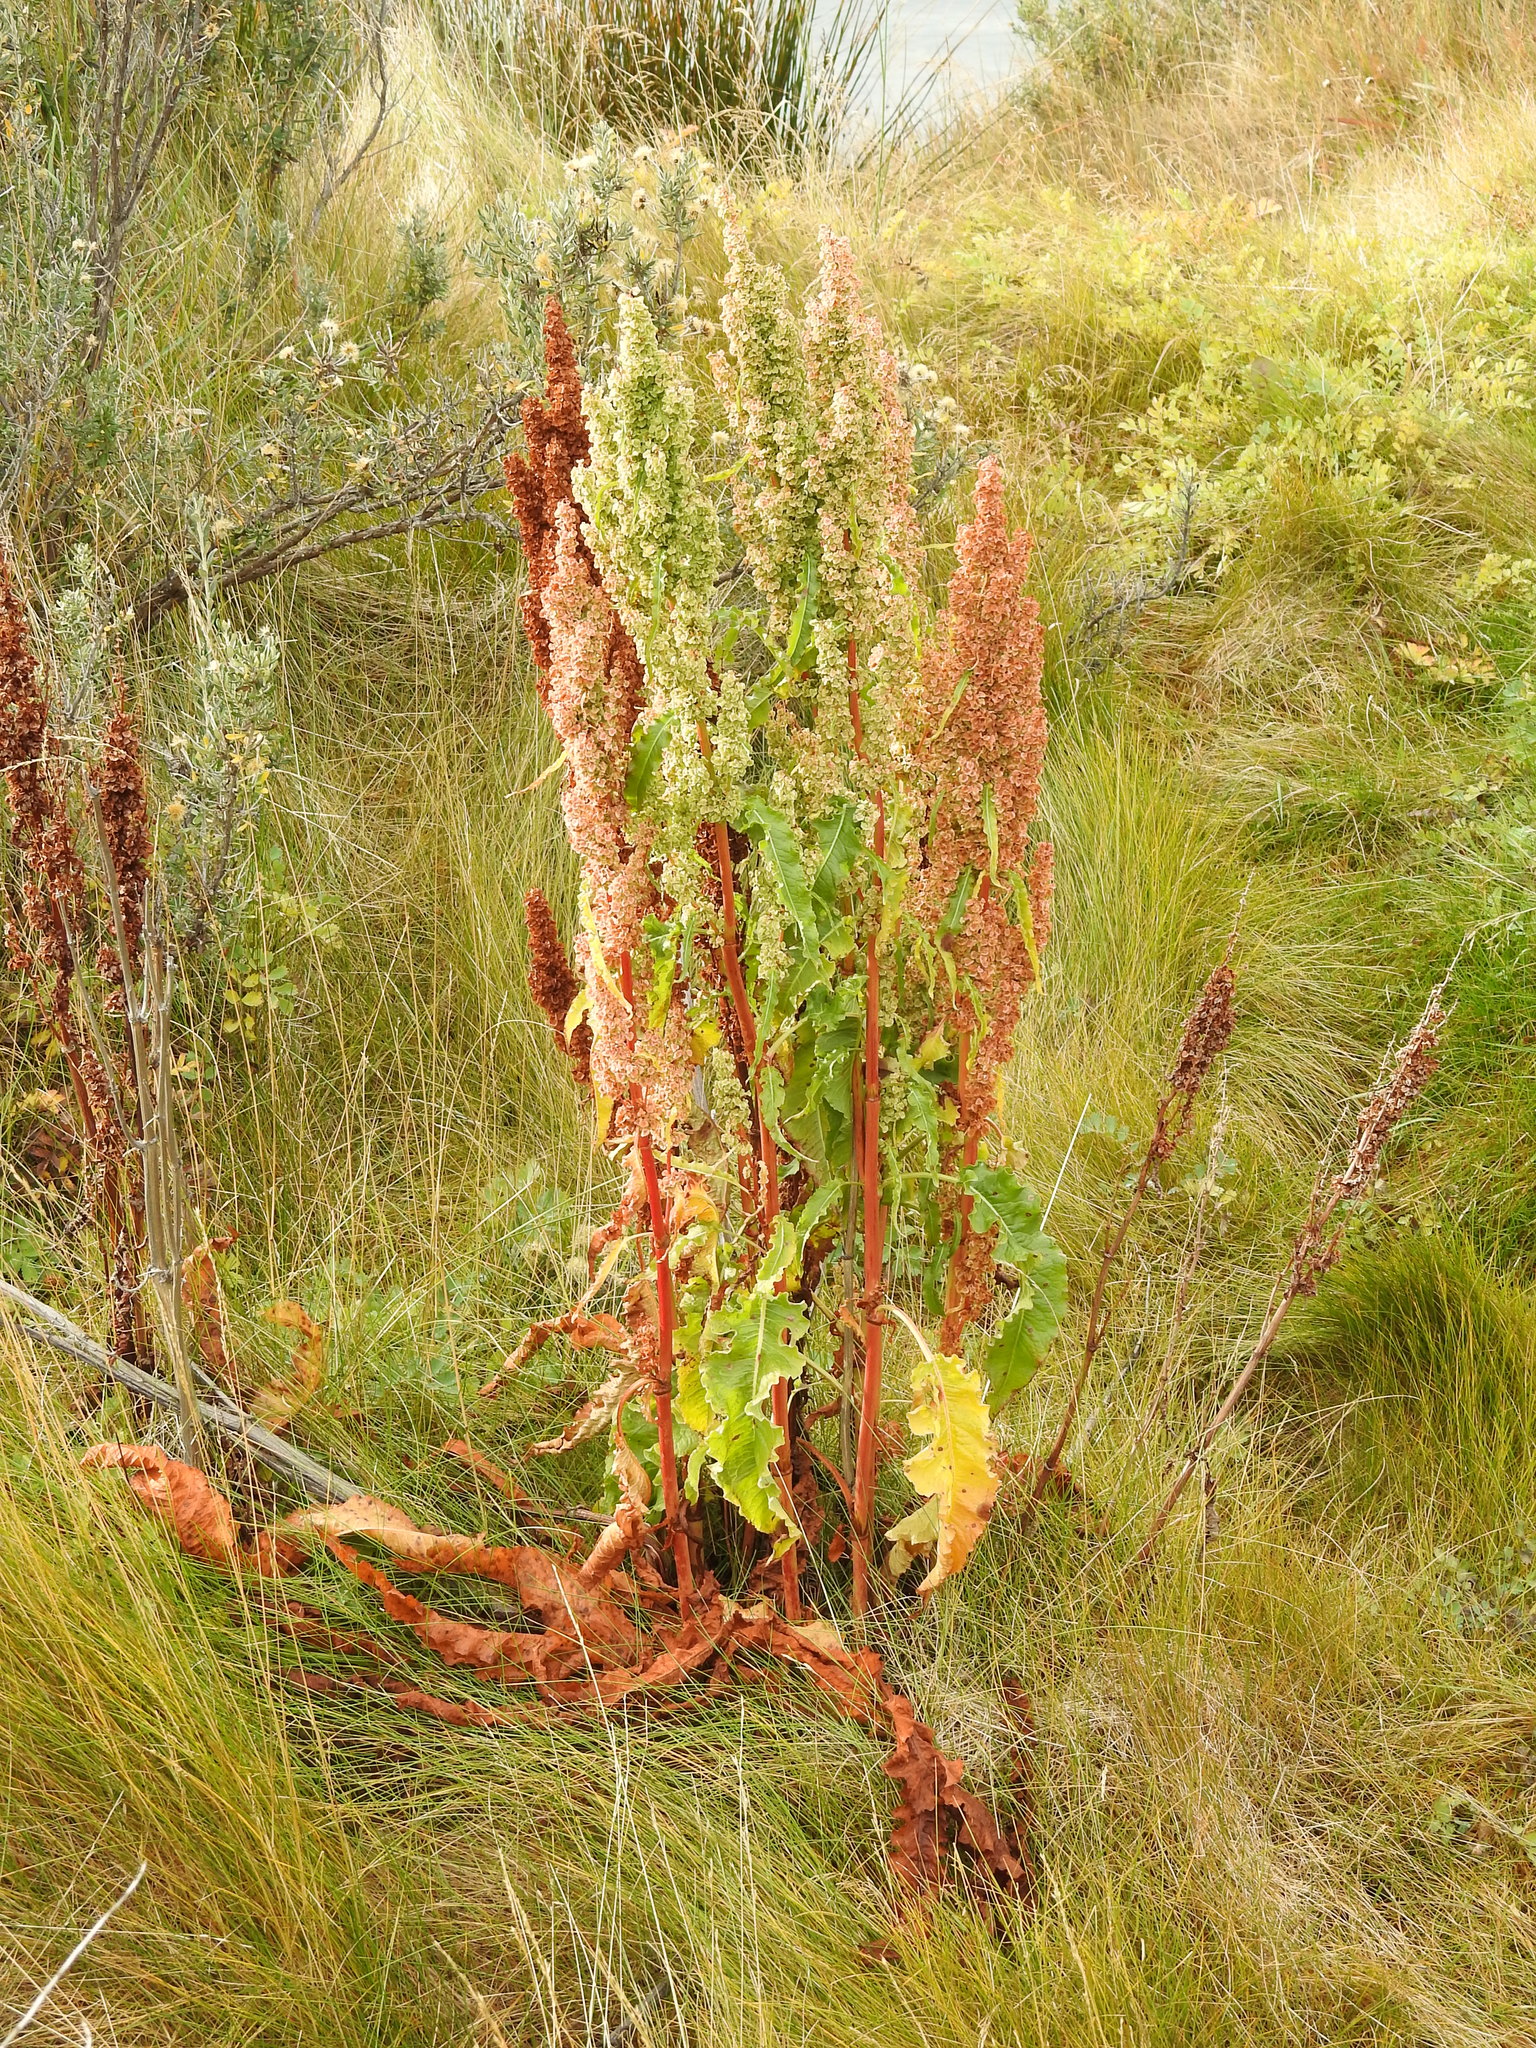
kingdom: Plantae
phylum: Tracheophyta
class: Magnoliopsida
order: Caryophyllales
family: Polygonaceae
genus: Rumex
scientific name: Rumex crispus
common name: Curled dock
